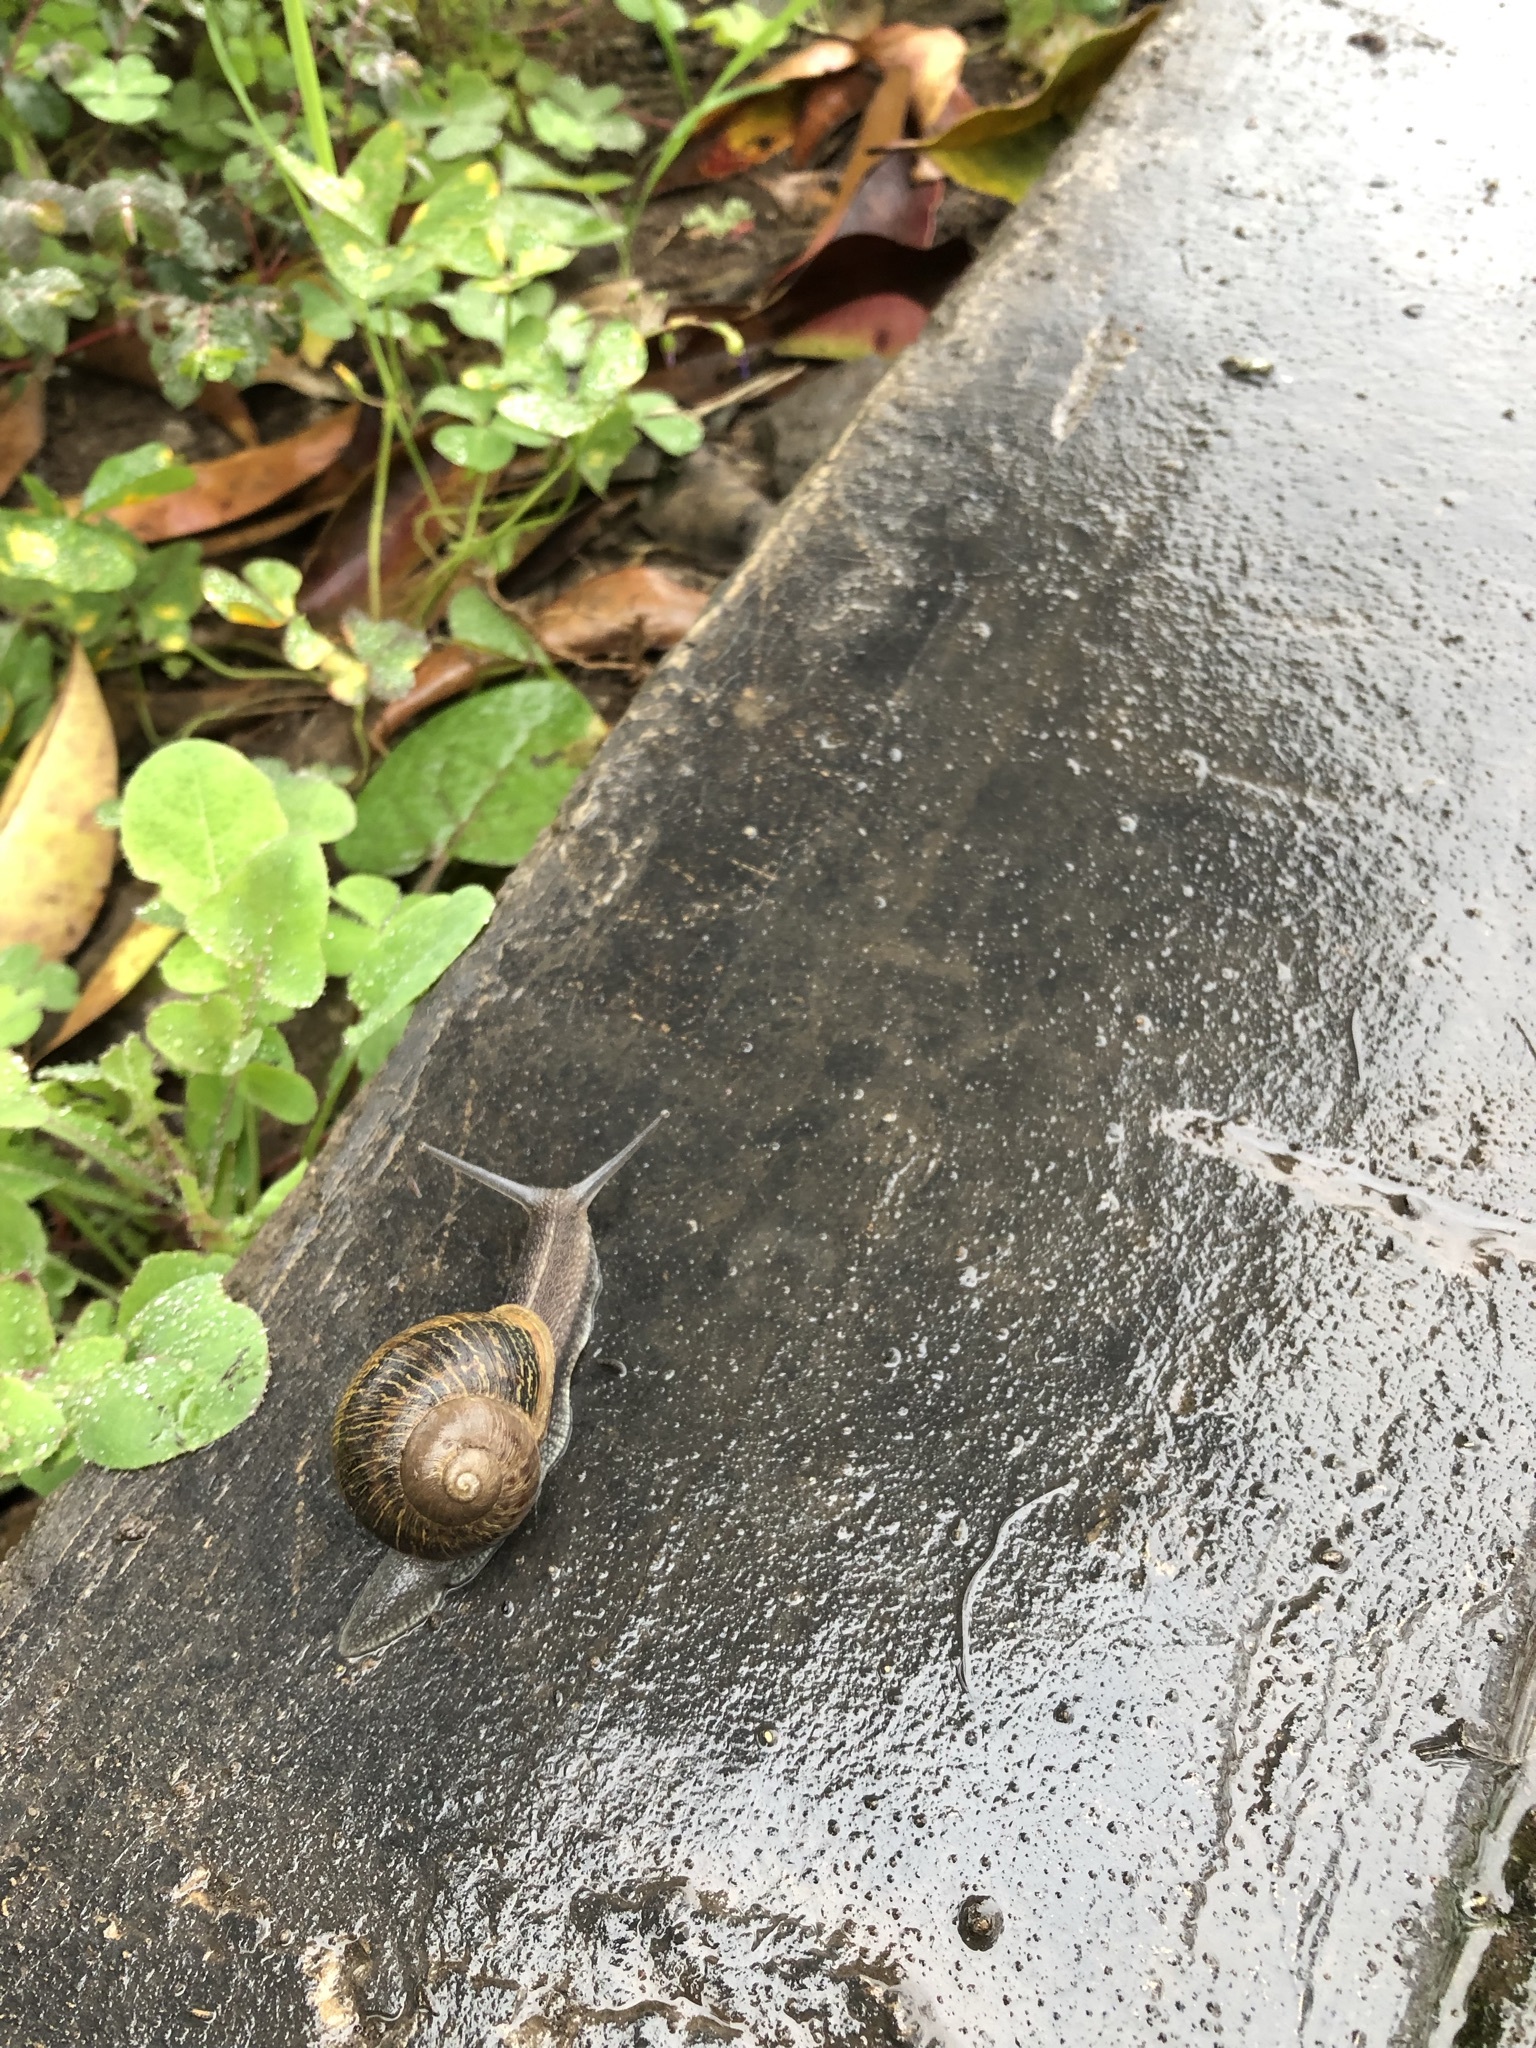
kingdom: Animalia
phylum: Mollusca
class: Gastropoda
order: Stylommatophora
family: Helicidae
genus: Cornu
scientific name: Cornu aspersum
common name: Brown garden snail
